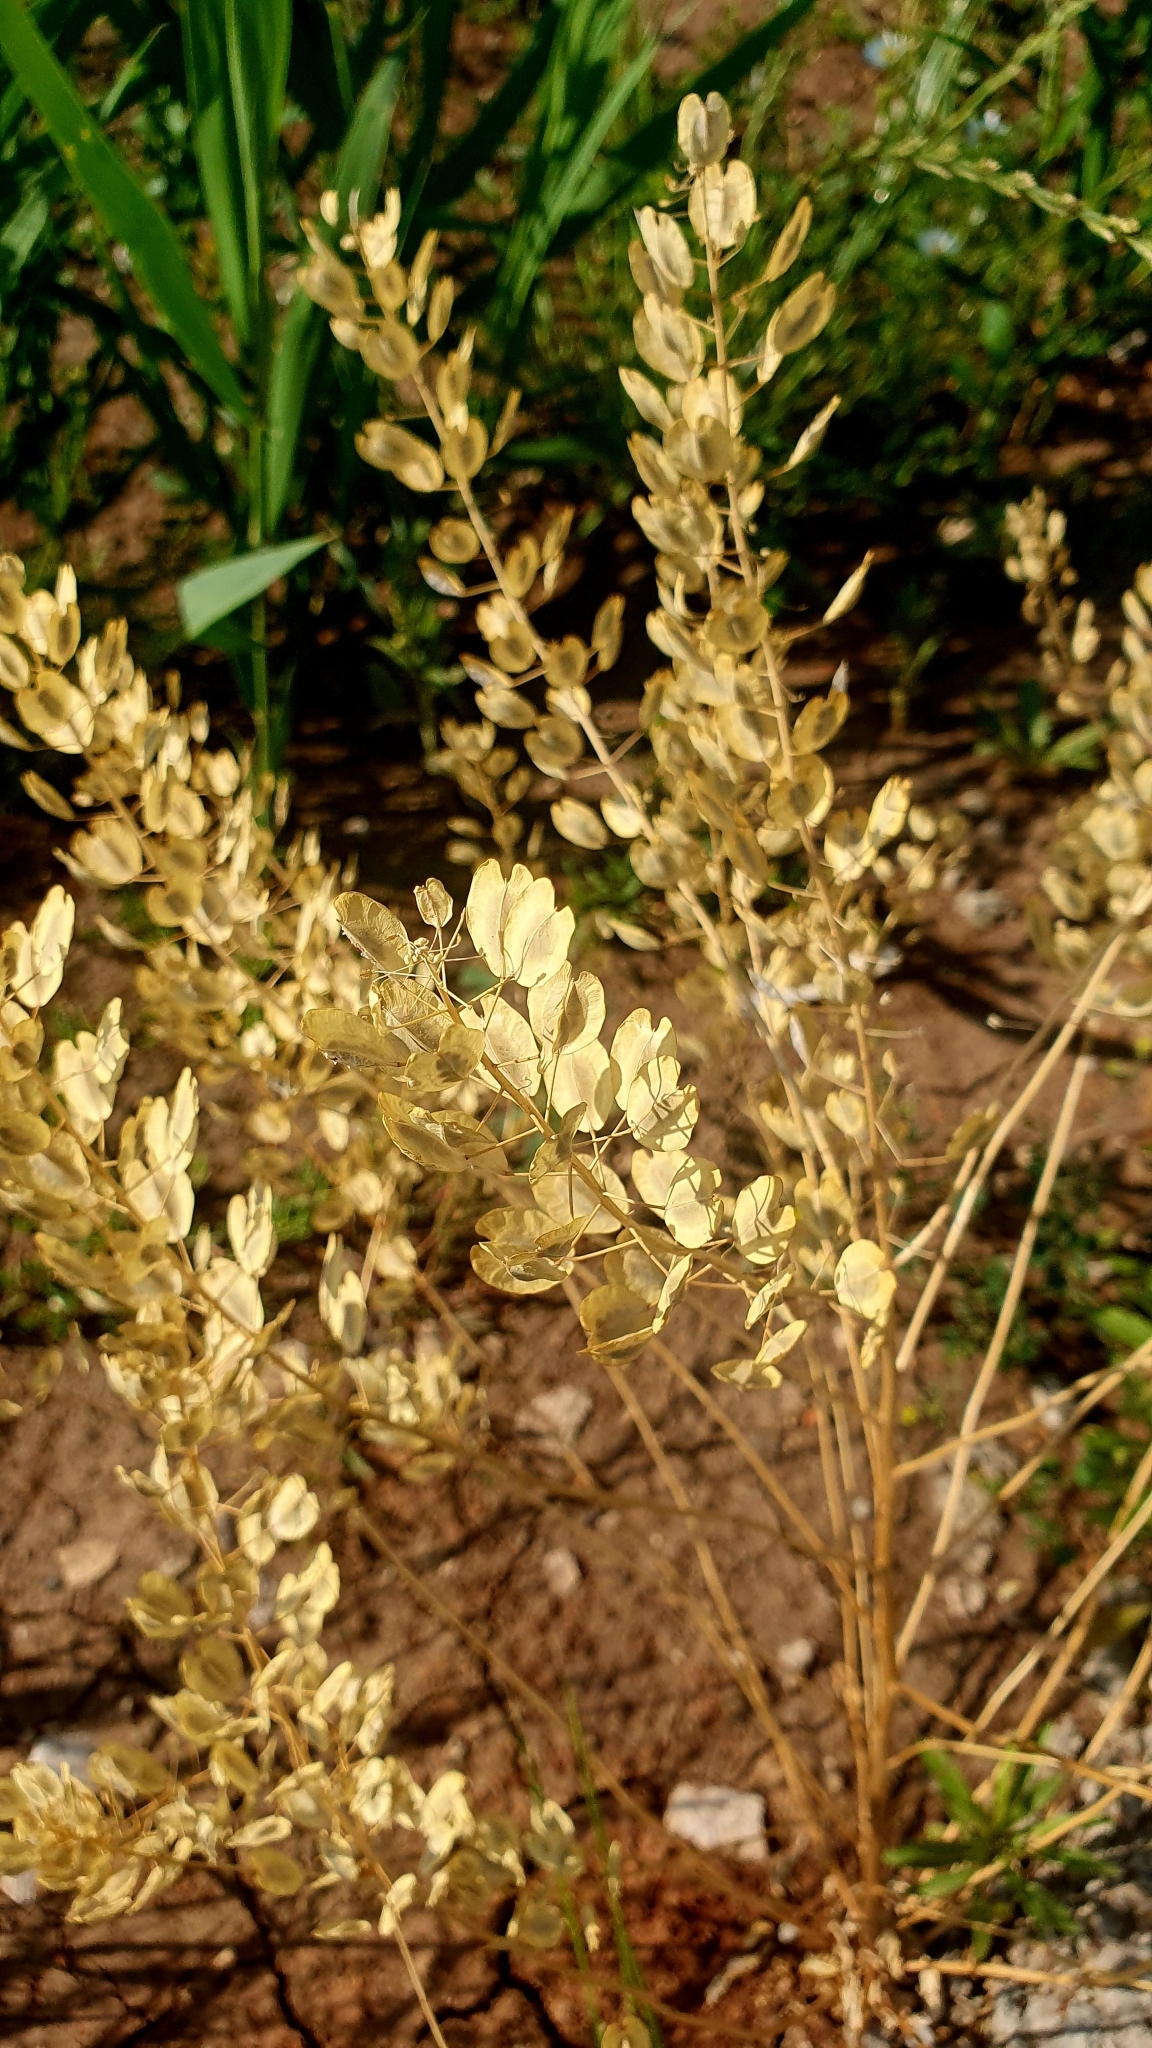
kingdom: Plantae
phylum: Tracheophyta
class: Magnoliopsida
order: Brassicales
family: Brassicaceae
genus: Thlaspi
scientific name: Thlaspi arvense
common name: Field pennycress
